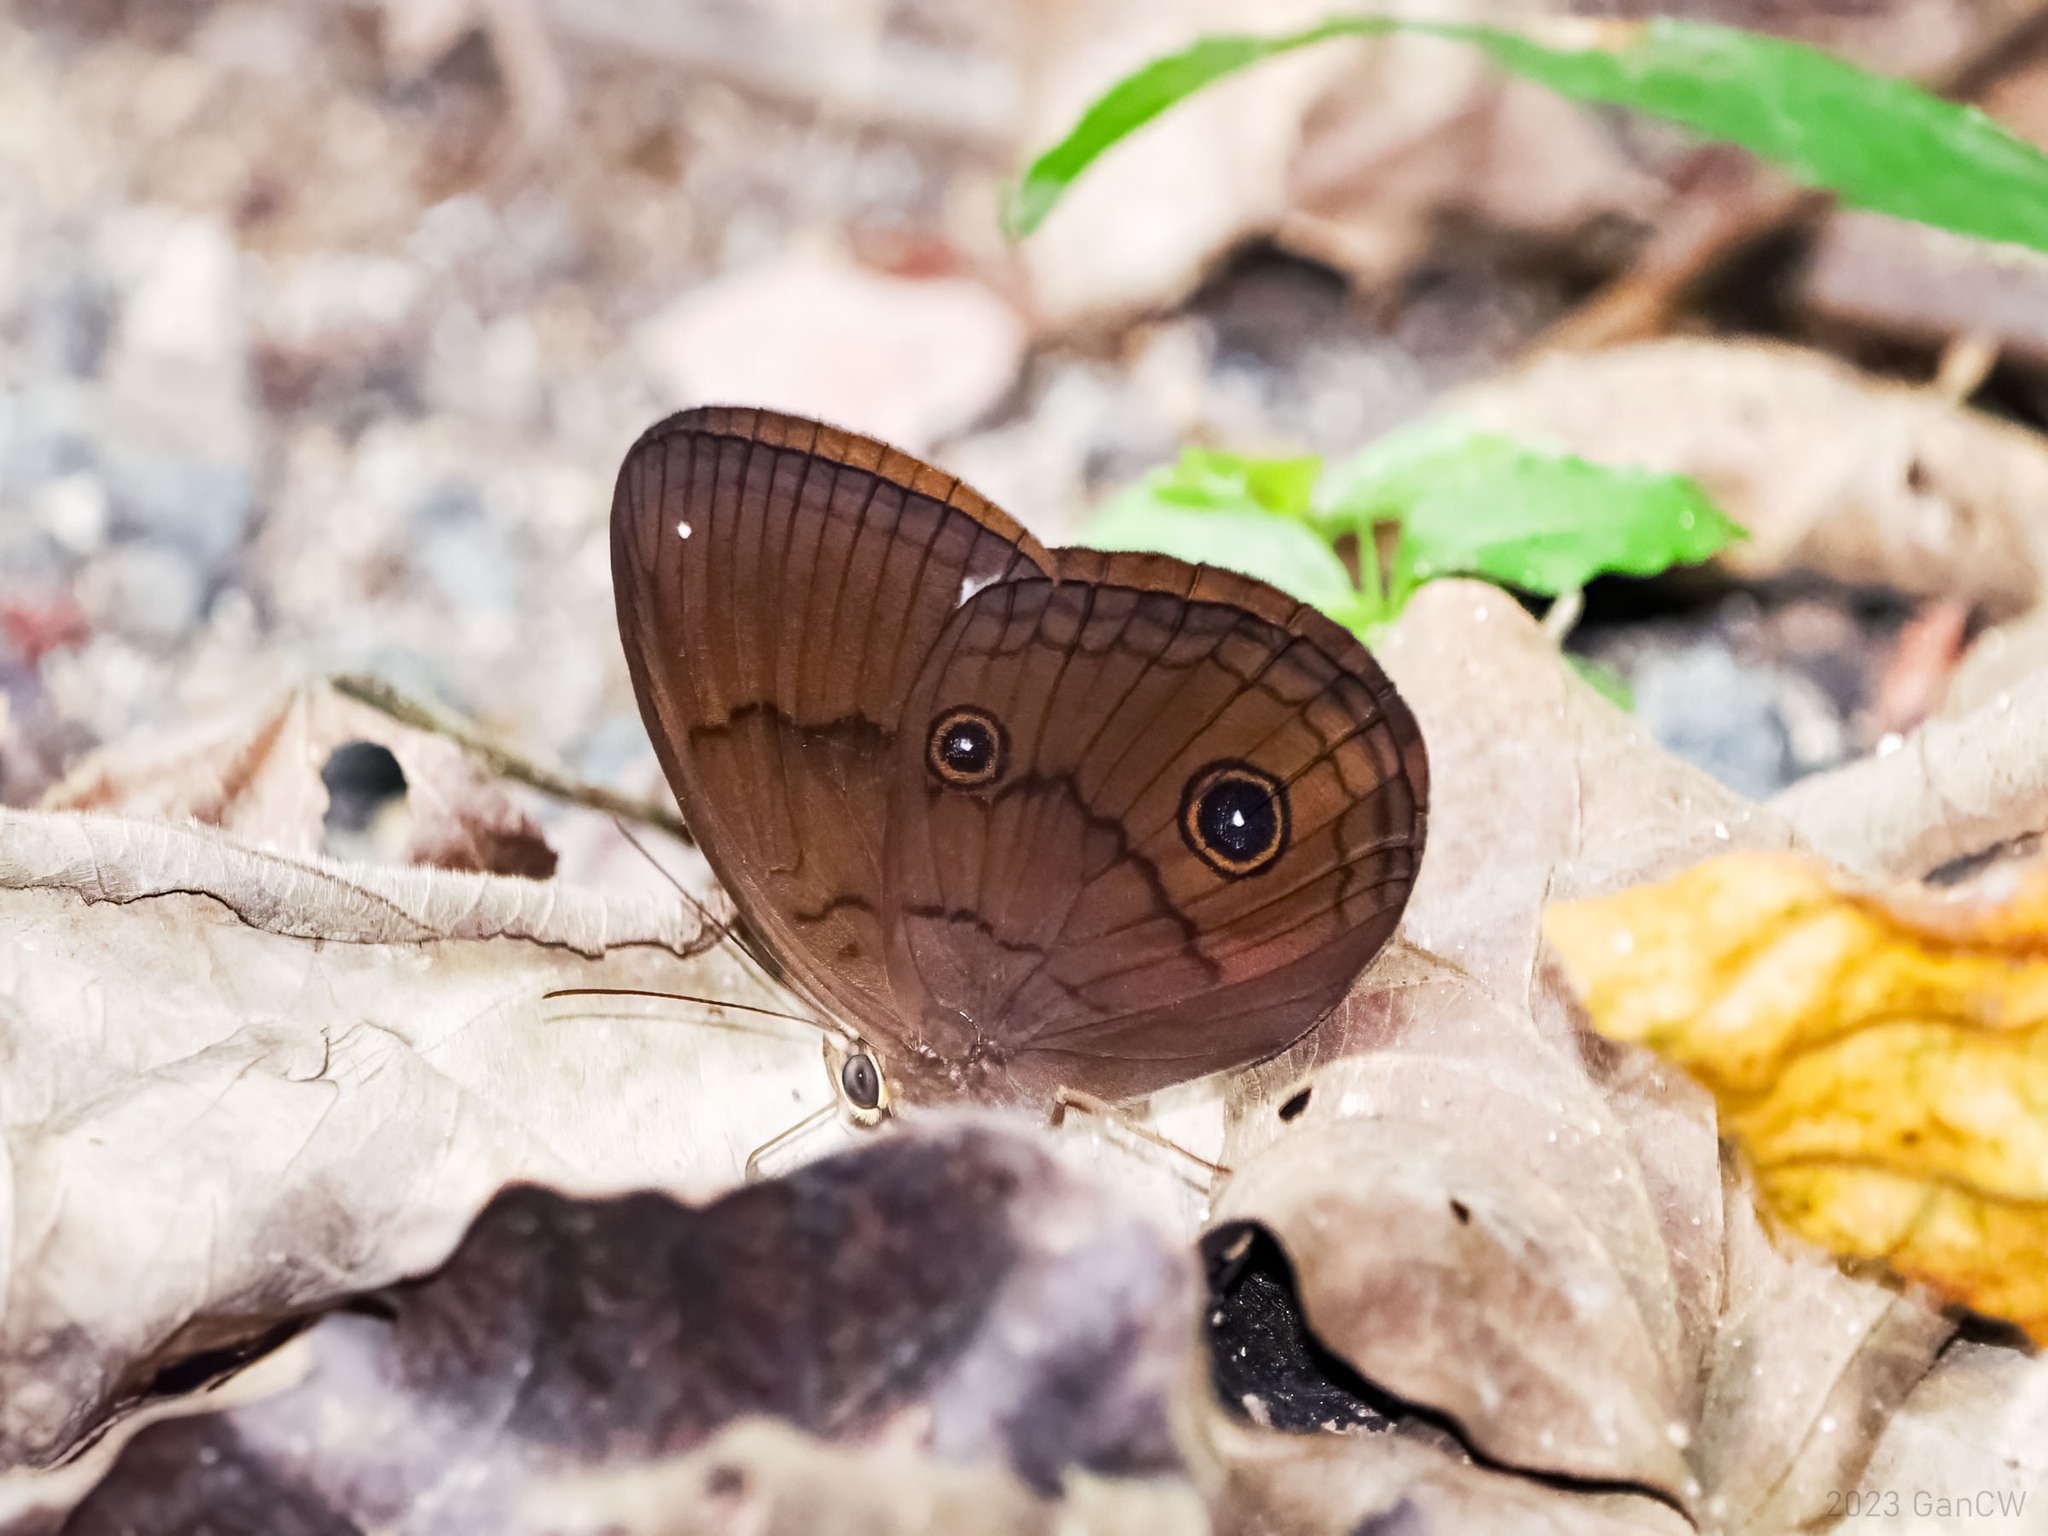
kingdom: Animalia
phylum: Arthropoda
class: Insecta
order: Lepidoptera
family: Nymphalidae
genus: Faunis
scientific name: Faunis phaon
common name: Faun butterfly
